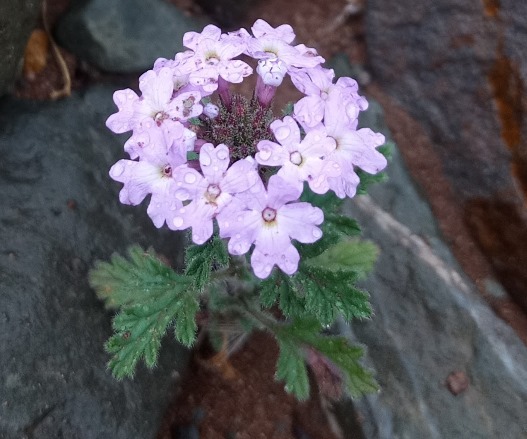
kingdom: Plantae
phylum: Tracheophyta
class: Magnoliopsida
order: Lamiales
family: Verbenaceae
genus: Verbena
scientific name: Verbena venturii
